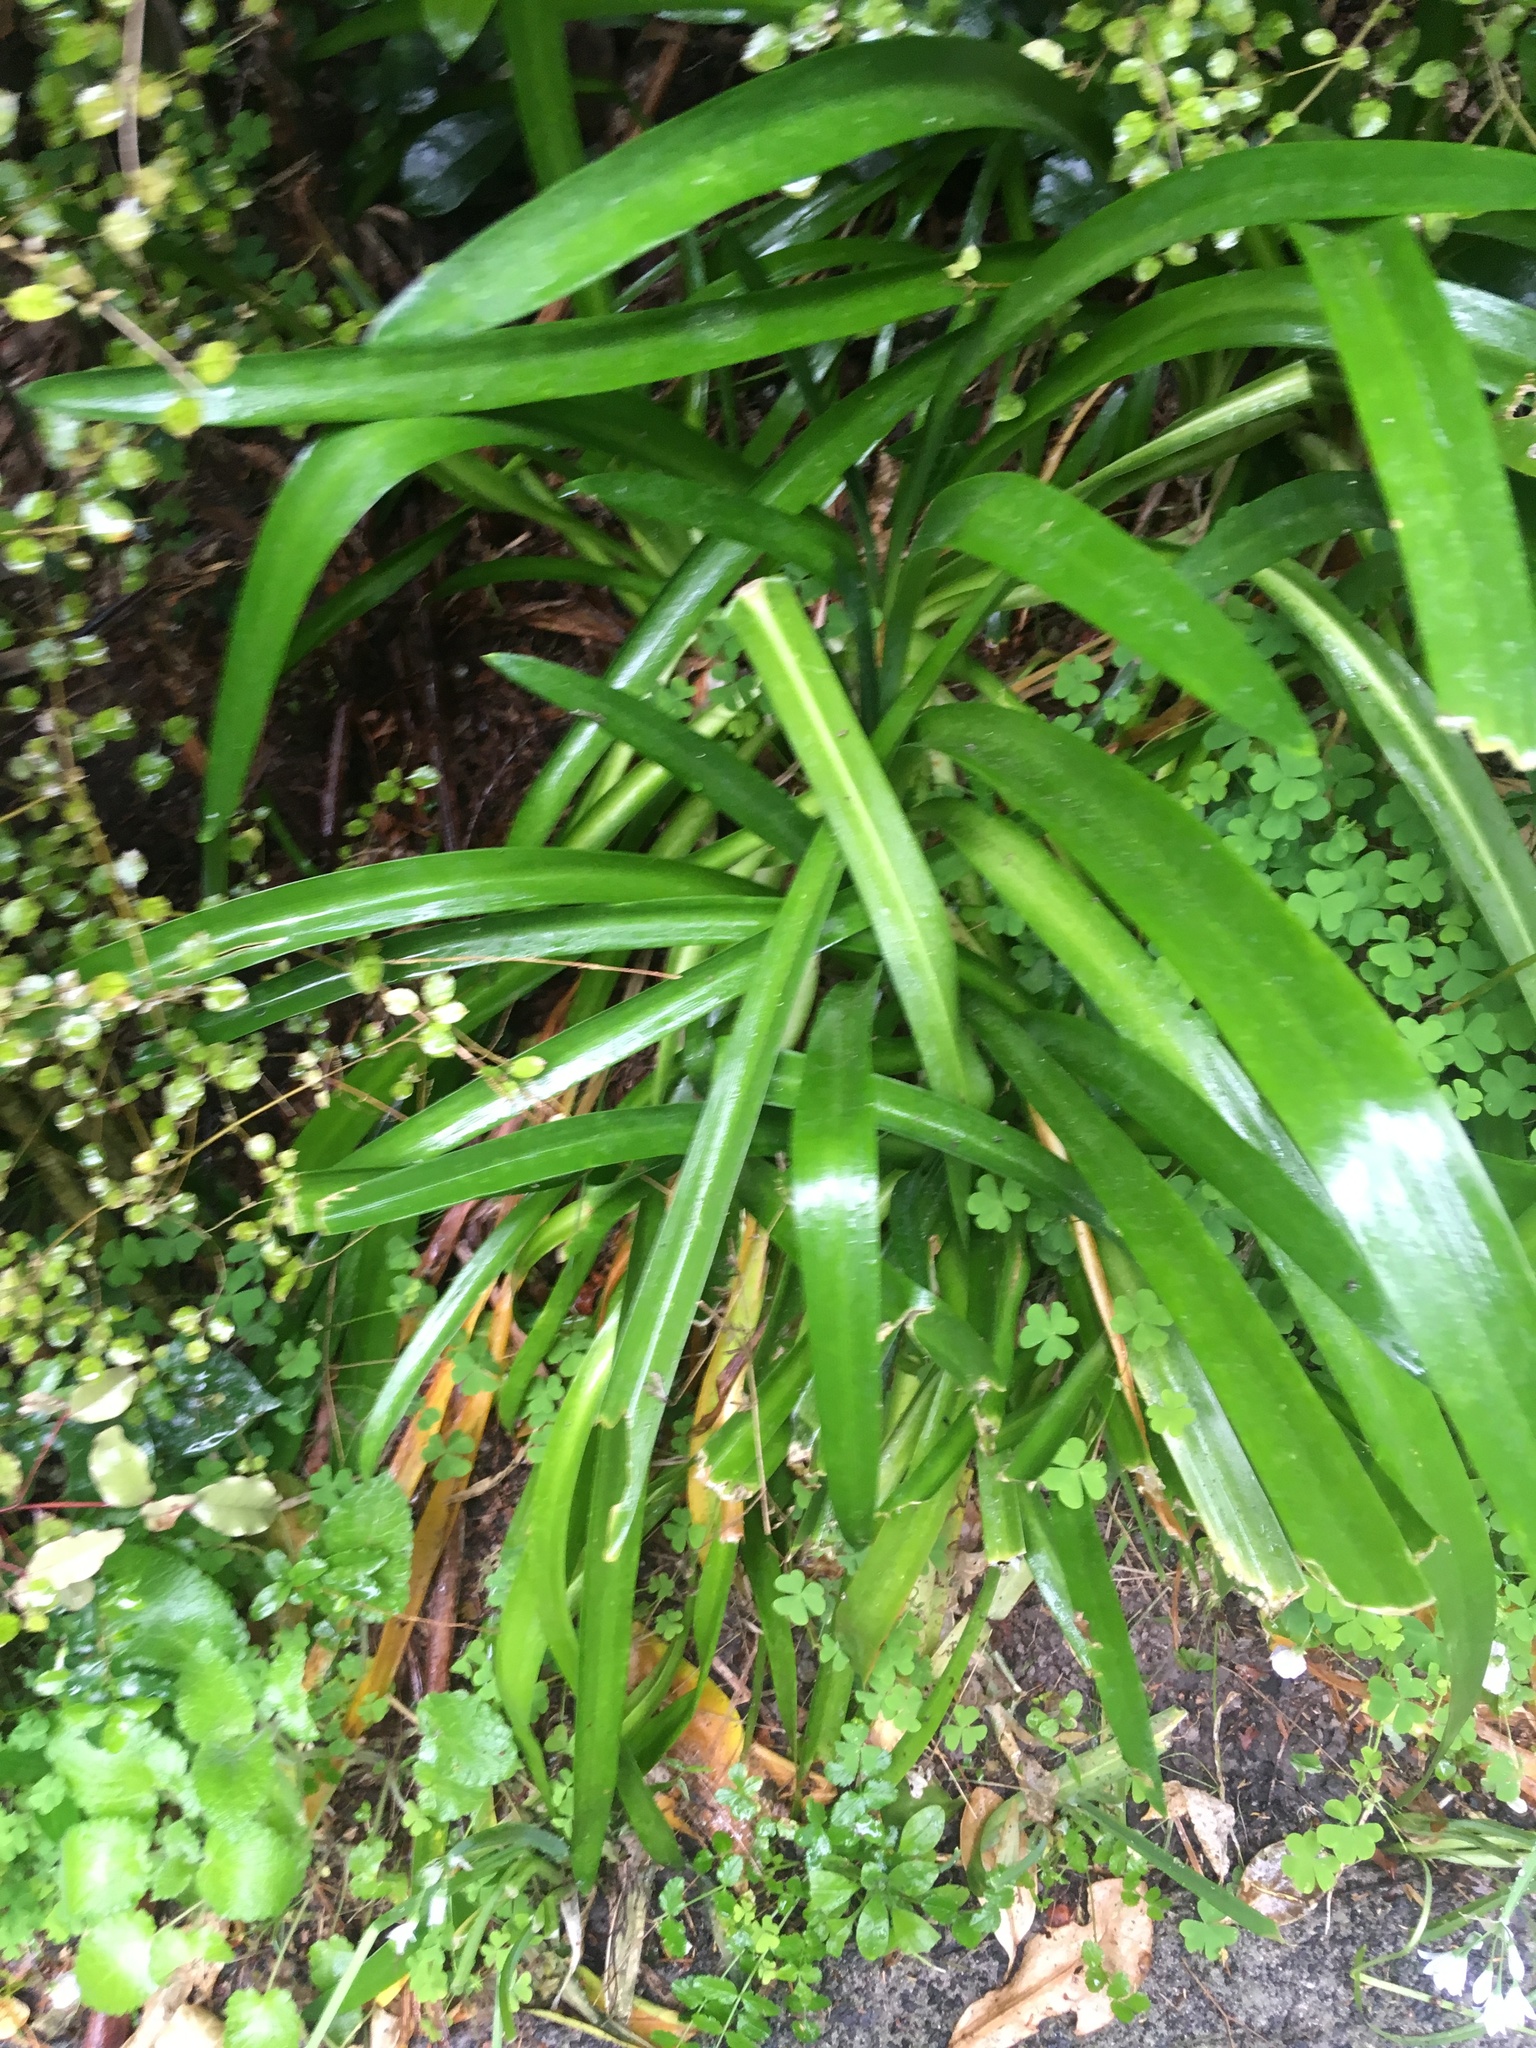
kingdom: Plantae
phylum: Tracheophyta
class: Liliopsida
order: Asparagales
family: Amaryllidaceae
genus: Agapanthus
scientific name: Agapanthus praecox
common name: African-lily
